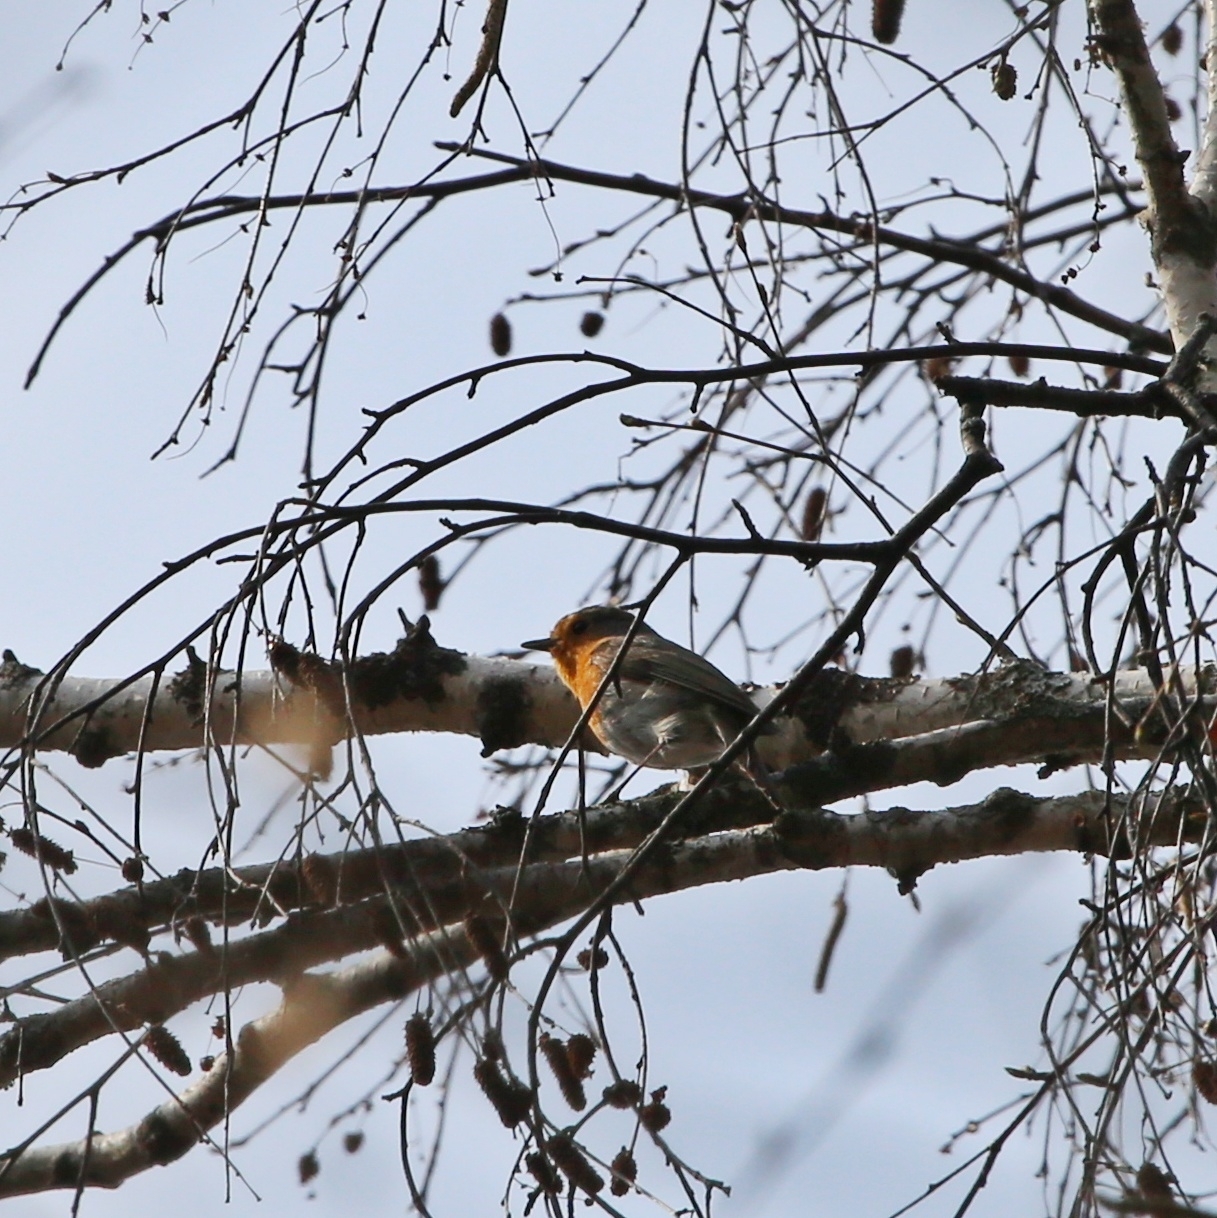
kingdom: Animalia
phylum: Chordata
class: Aves
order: Passeriformes
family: Muscicapidae
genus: Erithacus
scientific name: Erithacus rubecula
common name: European robin
